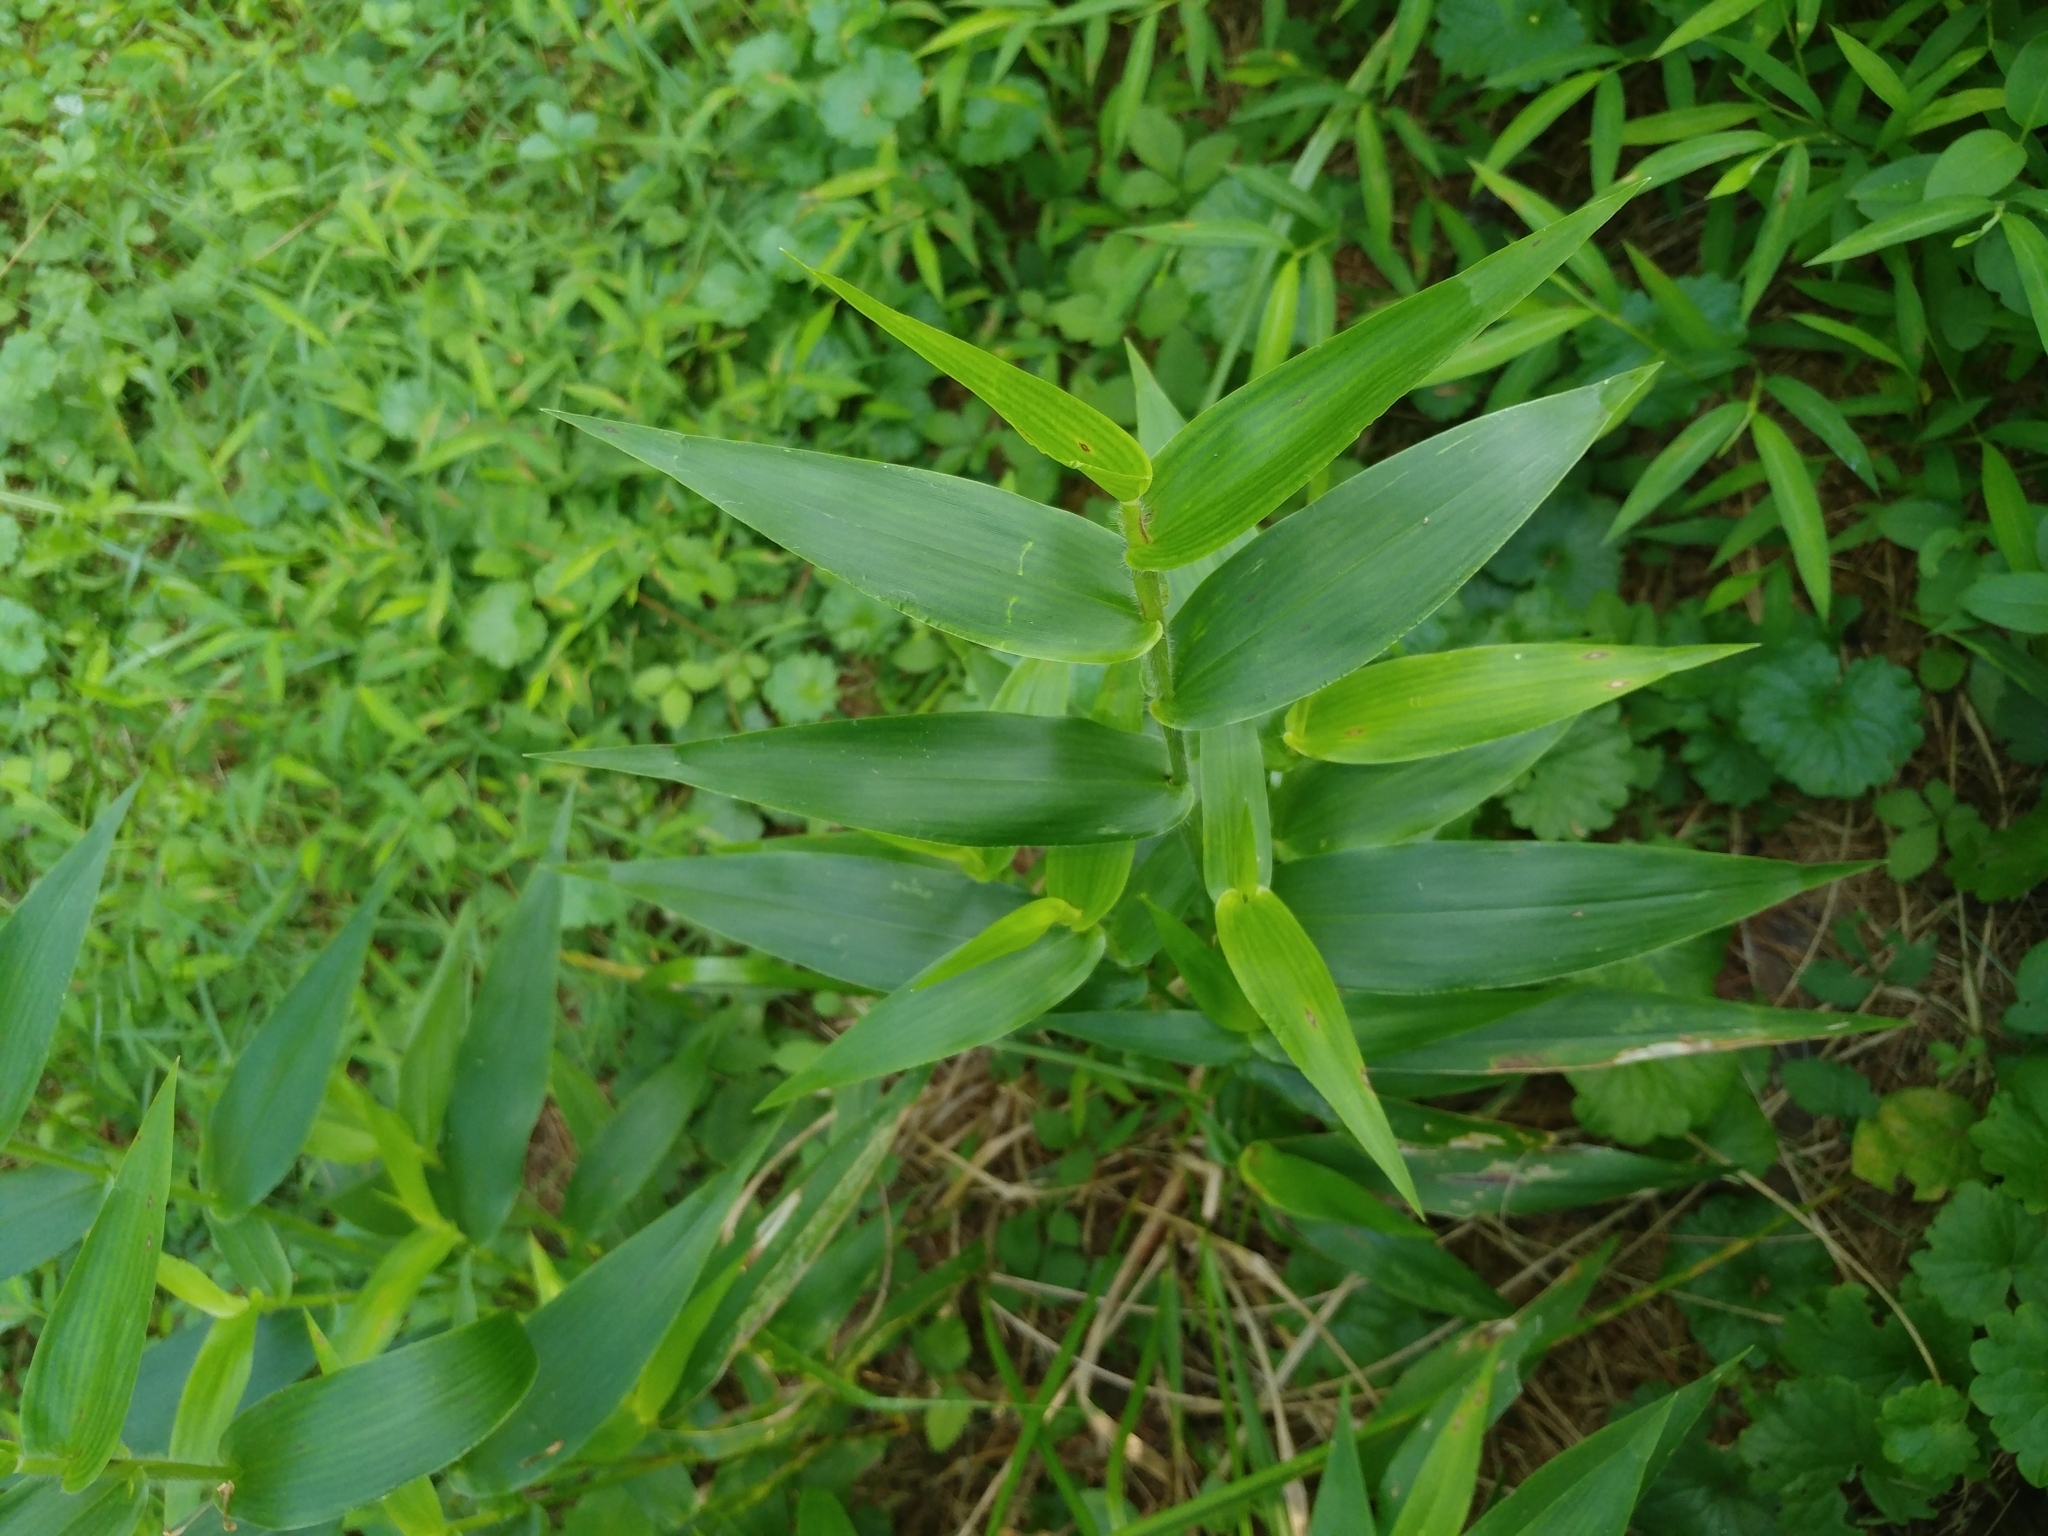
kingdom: Plantae
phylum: Tracheophyta
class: Liliopsida
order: Poales
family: Poaceae
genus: Dichanthelium
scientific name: Dichanthelium clandestinum
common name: Deer-tongue grass
